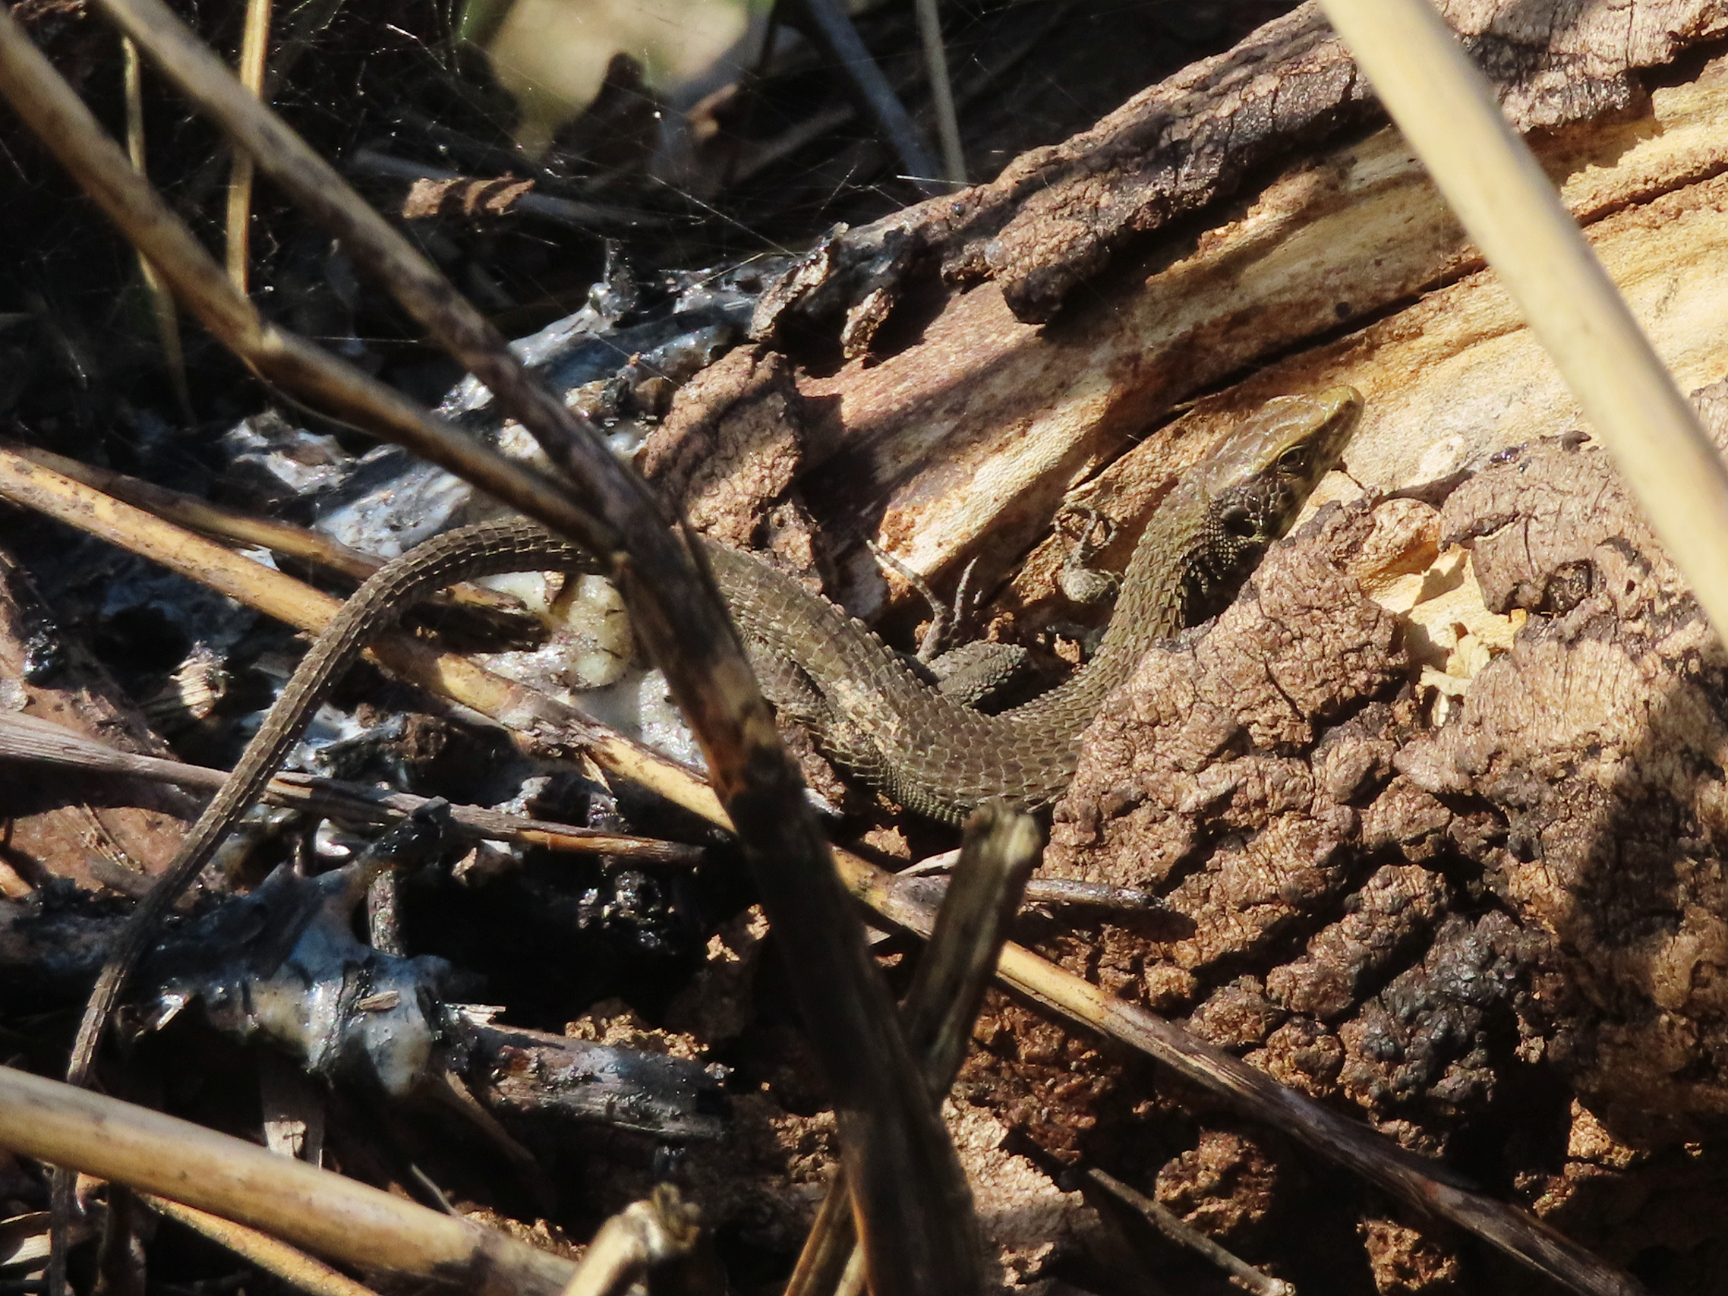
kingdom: Animalia
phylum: Chordata
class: Squamata
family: Lacertidae
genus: Algyroides
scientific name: Algyroides moreoticus
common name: Greek algyroides
